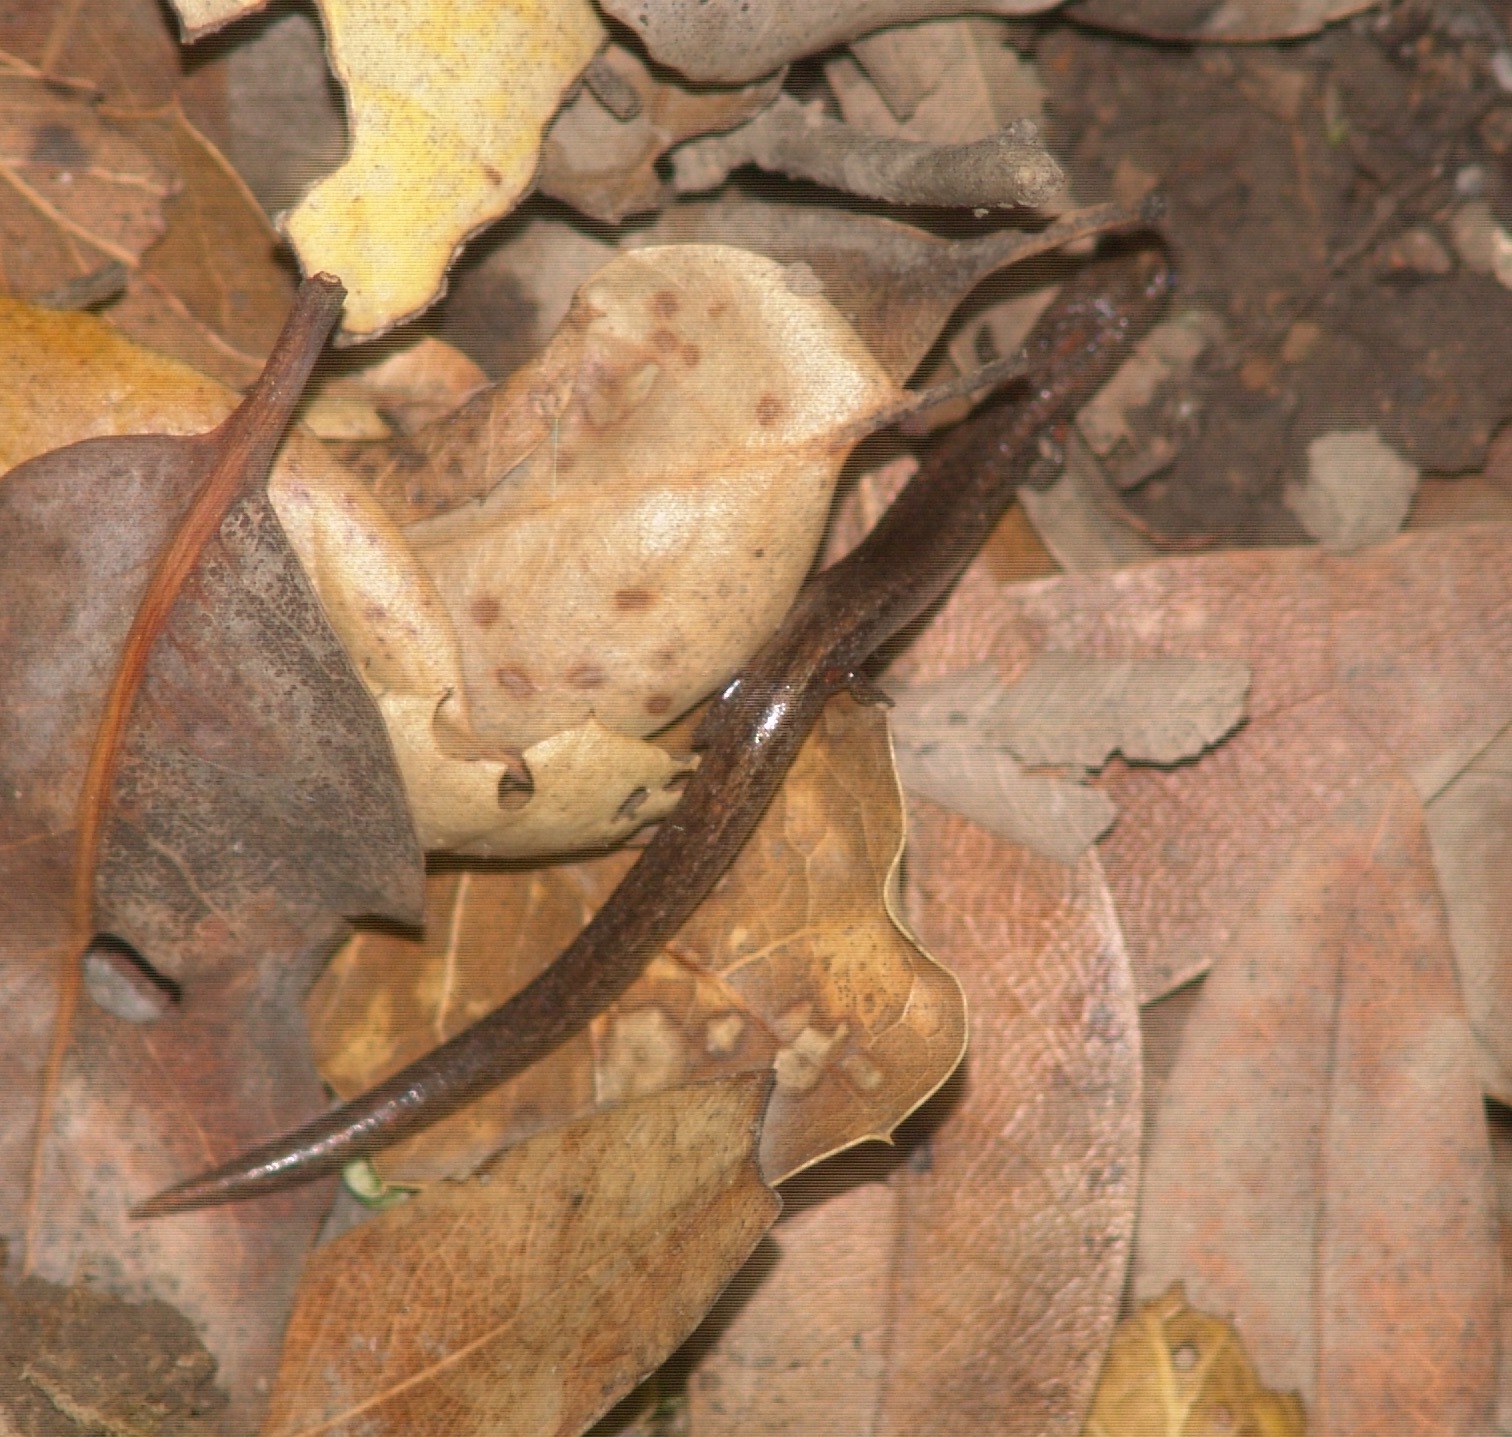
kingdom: Animalia
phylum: Chordata
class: Amphibia
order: Caudata
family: Plethodontidae
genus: Batrachoseps
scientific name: Batrachoseps attenuatus
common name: California slender salamander
